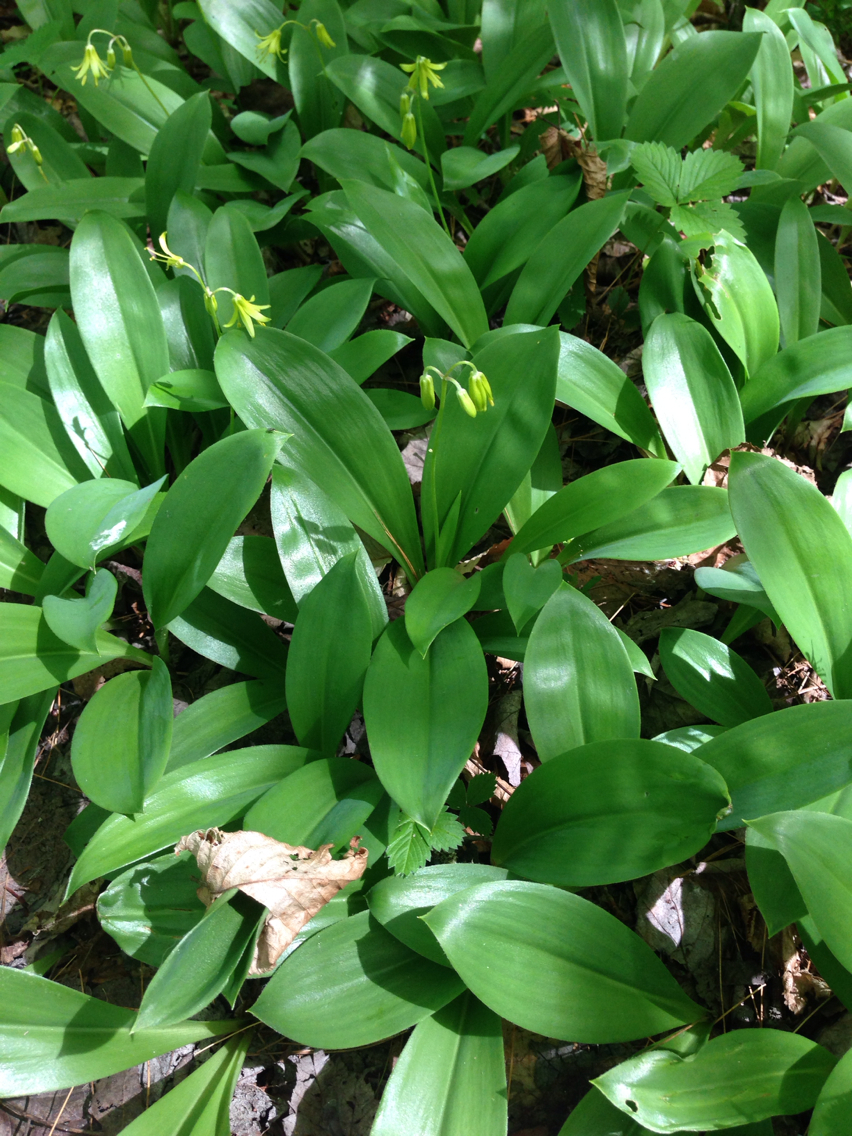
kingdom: Plantae
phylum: Tracheophyta
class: Liliopsida
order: Liliales
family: Liliaceae
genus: Clintonia
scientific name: Clintonia borealis
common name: Yellow clintonia
